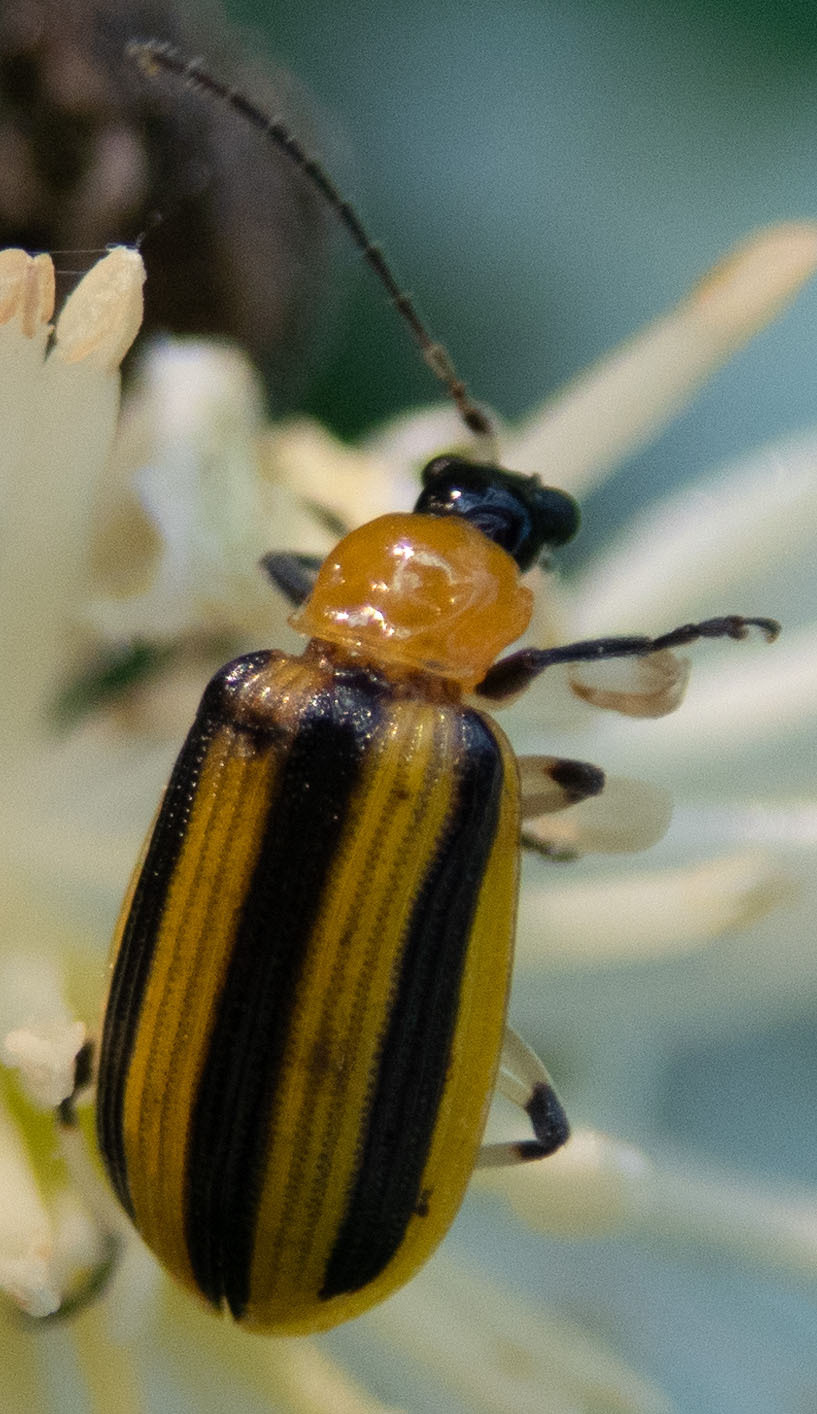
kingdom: Animalia
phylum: Arthropoda
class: Insecta
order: Coleoptera
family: Chrysomelidae
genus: Acalymma
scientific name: Acalymma vittatum
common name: Striped cucumber beetle
